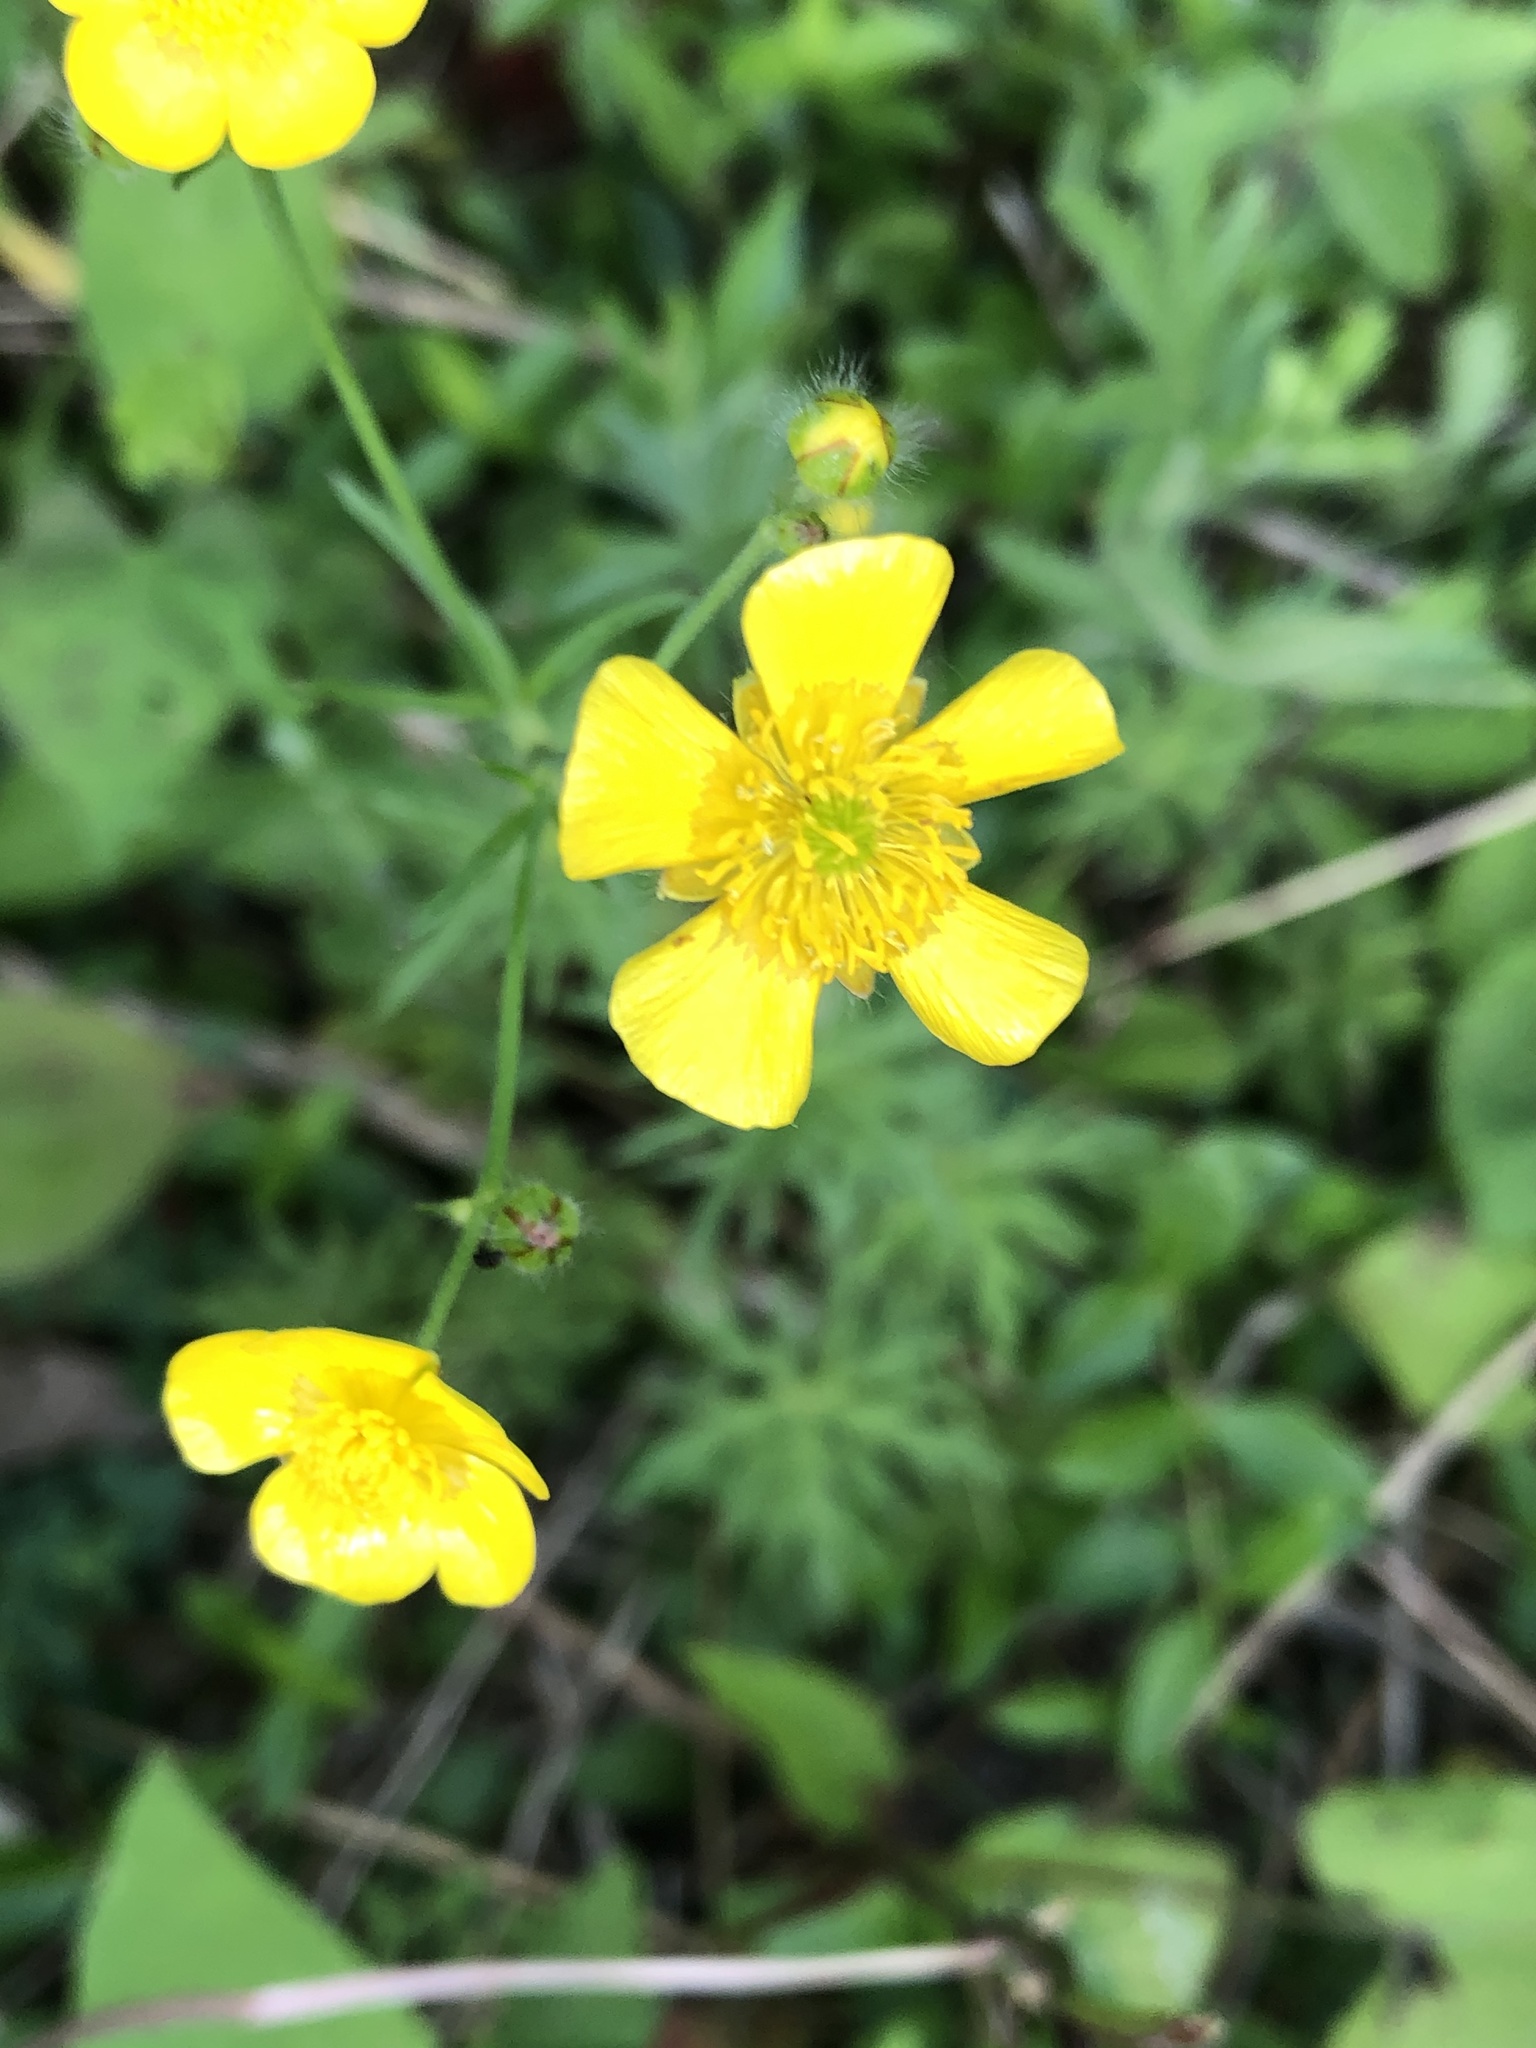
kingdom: Plantae
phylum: Tracheophyta
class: Magnoliopsida
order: Ranunculales
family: Ranunculaceae
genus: Ranunculus
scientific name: Ranunculus acris
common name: Meadow buttercup
